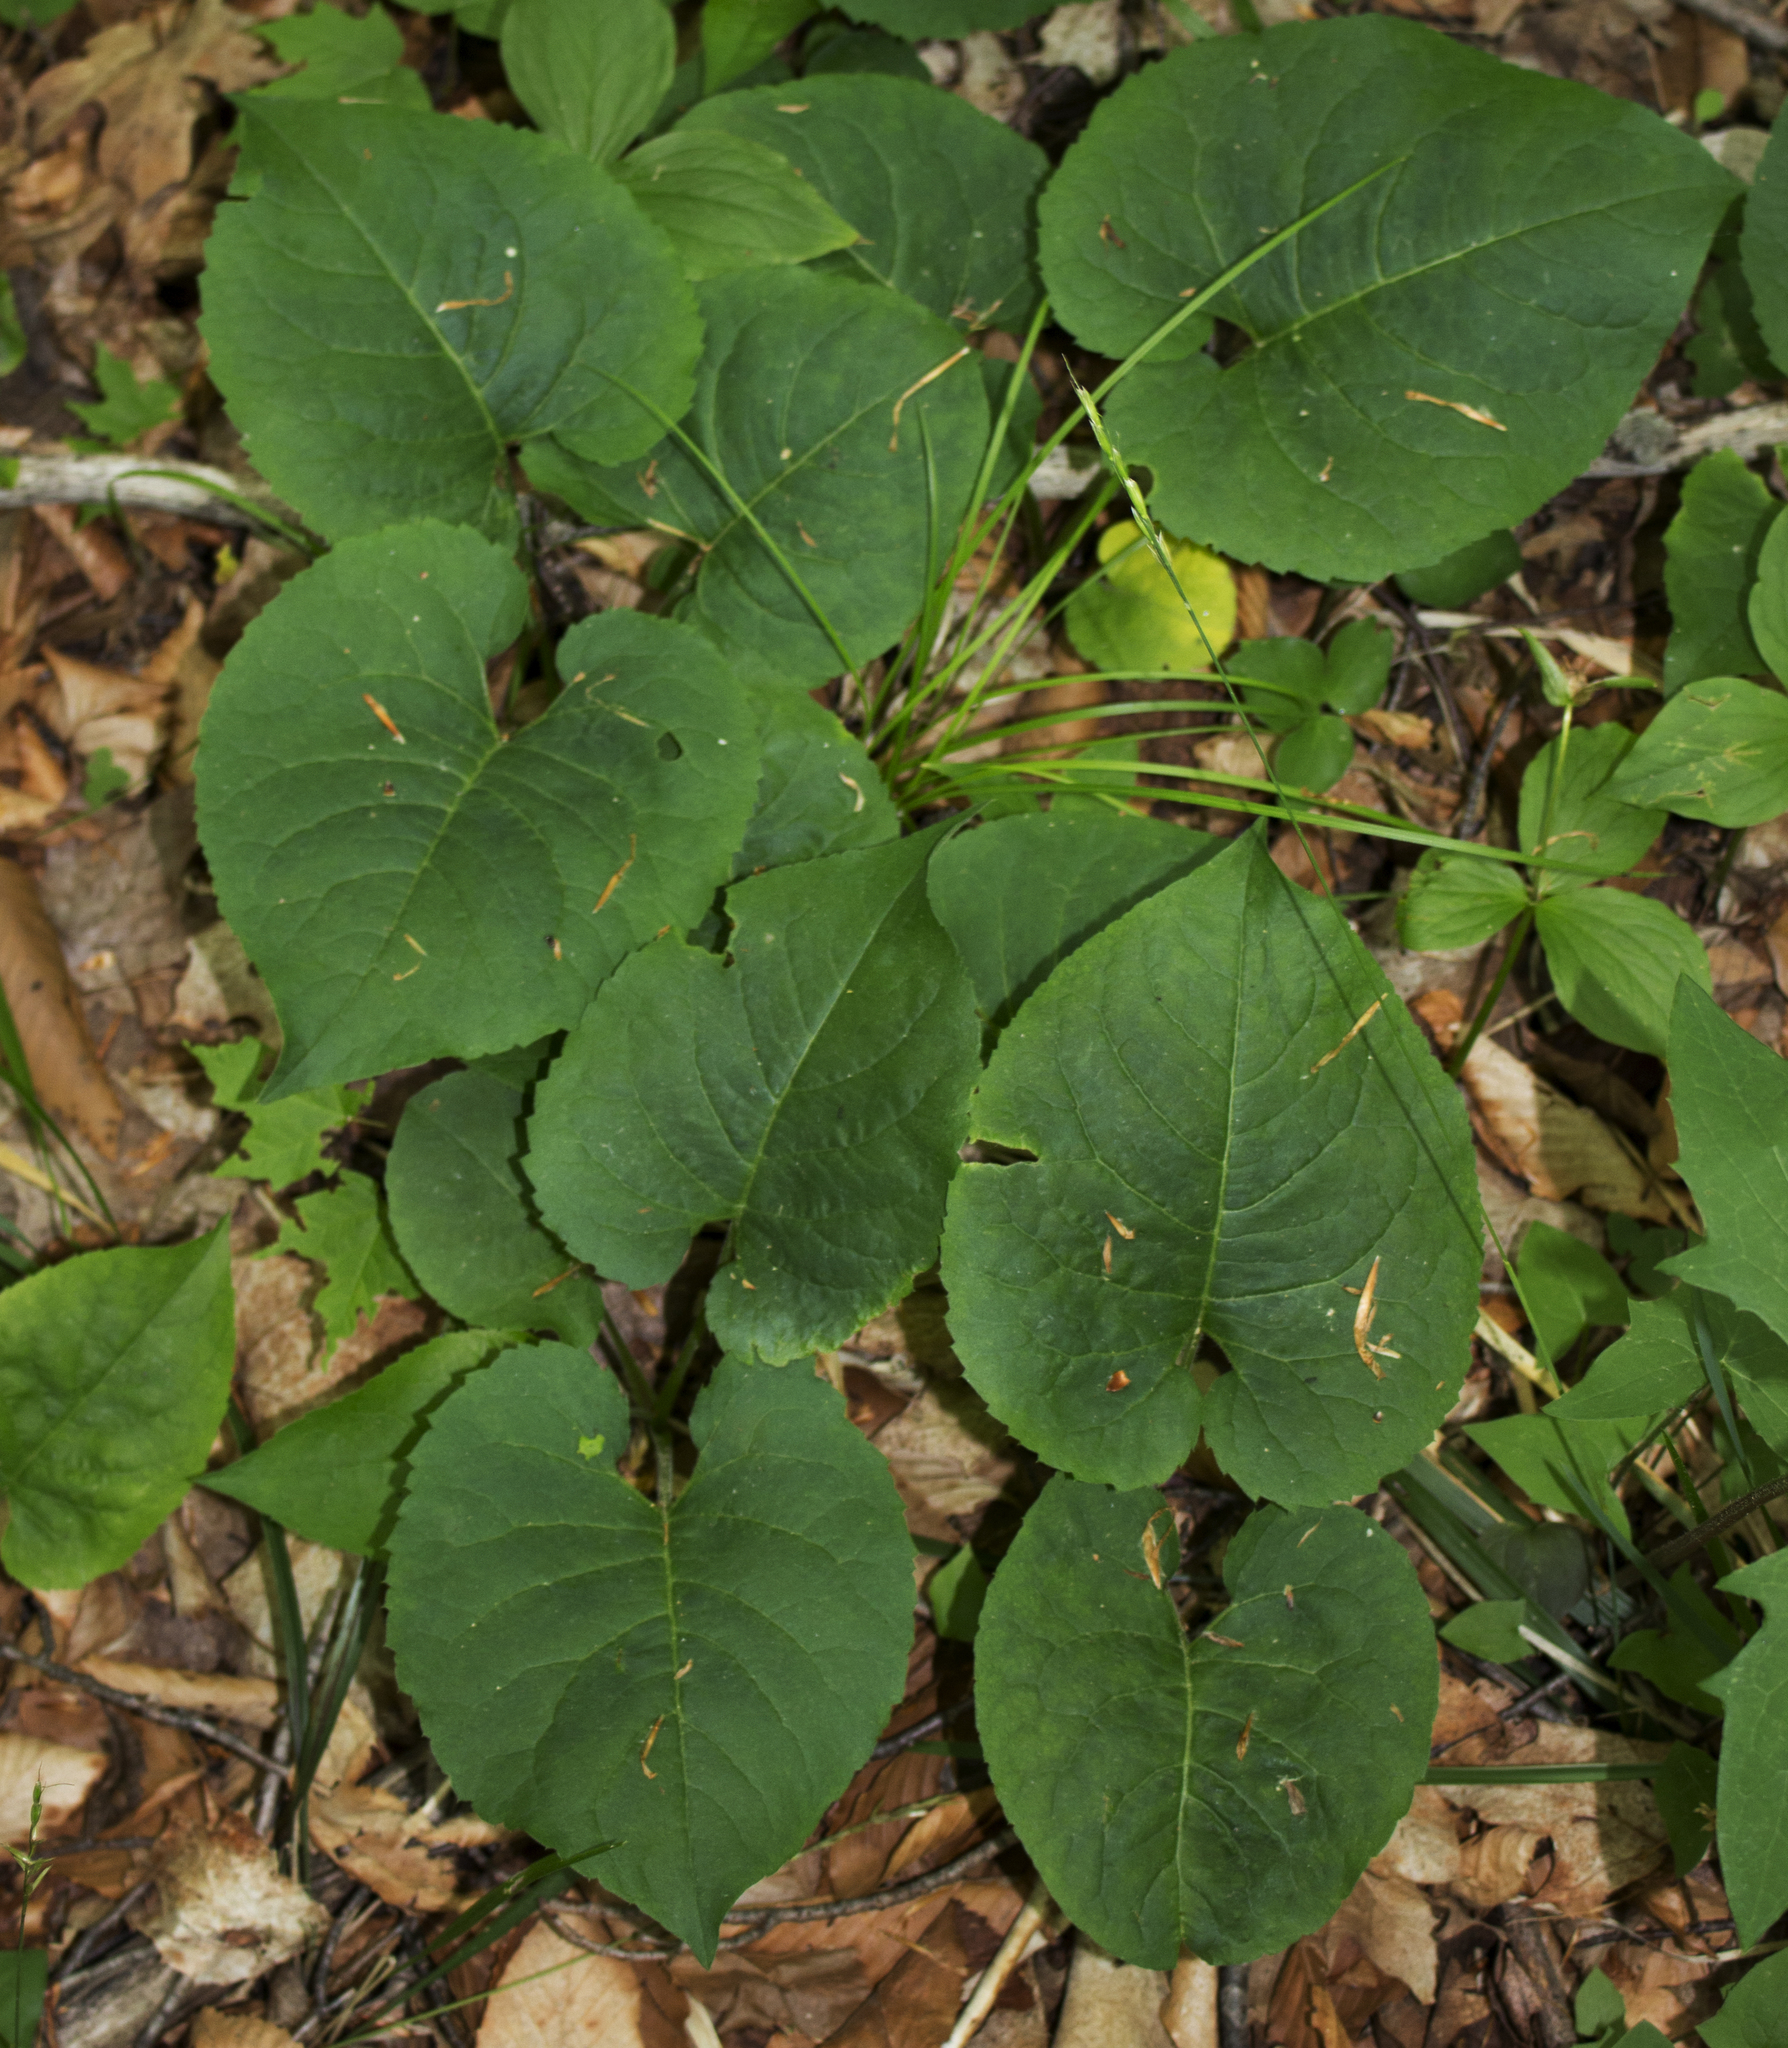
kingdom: Plantae
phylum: Tracheophyta
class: Magnoliopsida
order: Asterales
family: Asteraceae
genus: Eurybia
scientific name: Eurybia macrophylla
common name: Big-leaved aster
